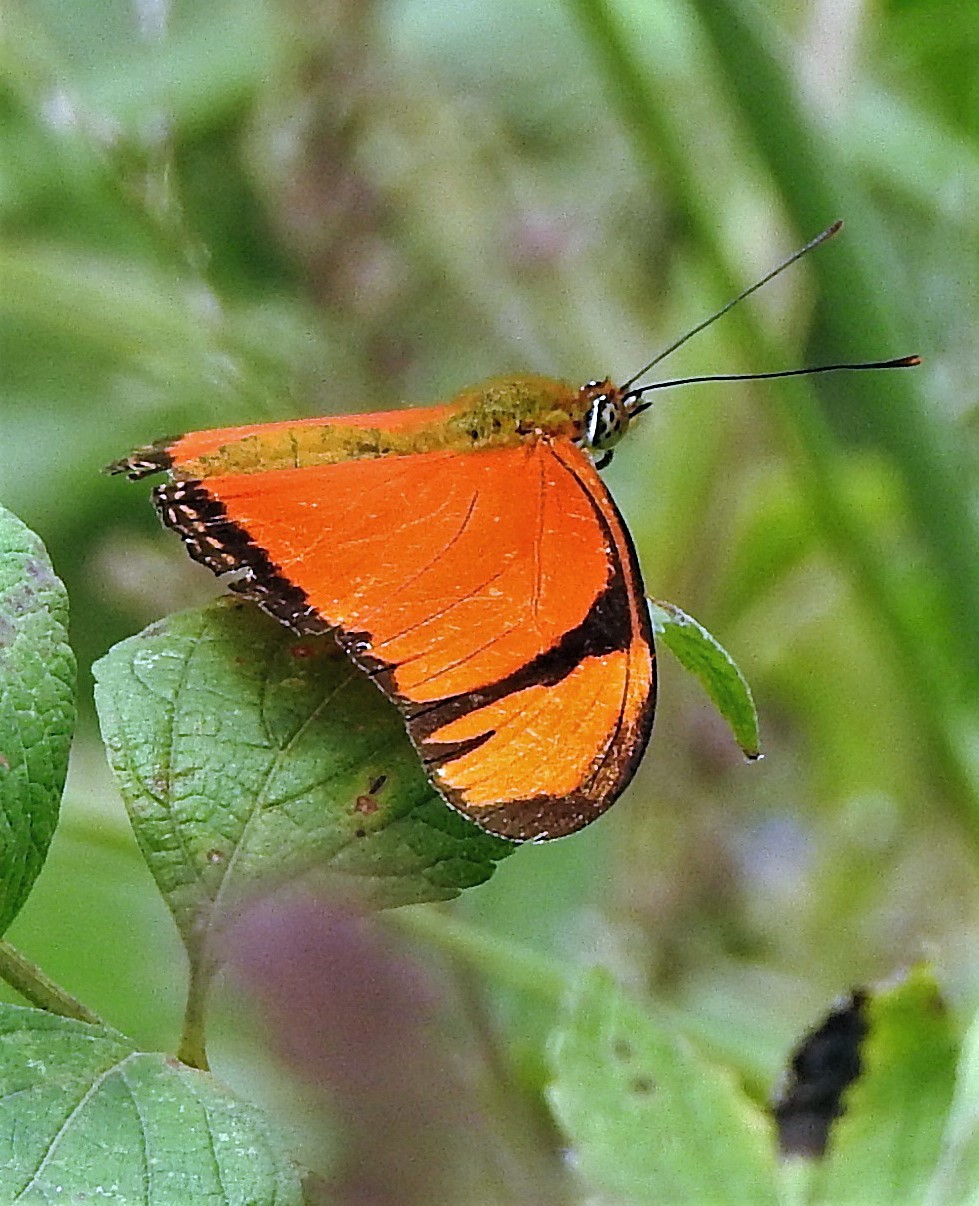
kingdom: Animalia
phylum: Arthropoda
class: Insecta
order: Lepidoptera
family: Nymphalidae
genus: Dryas
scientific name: Dryas iulia
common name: Flambeau
